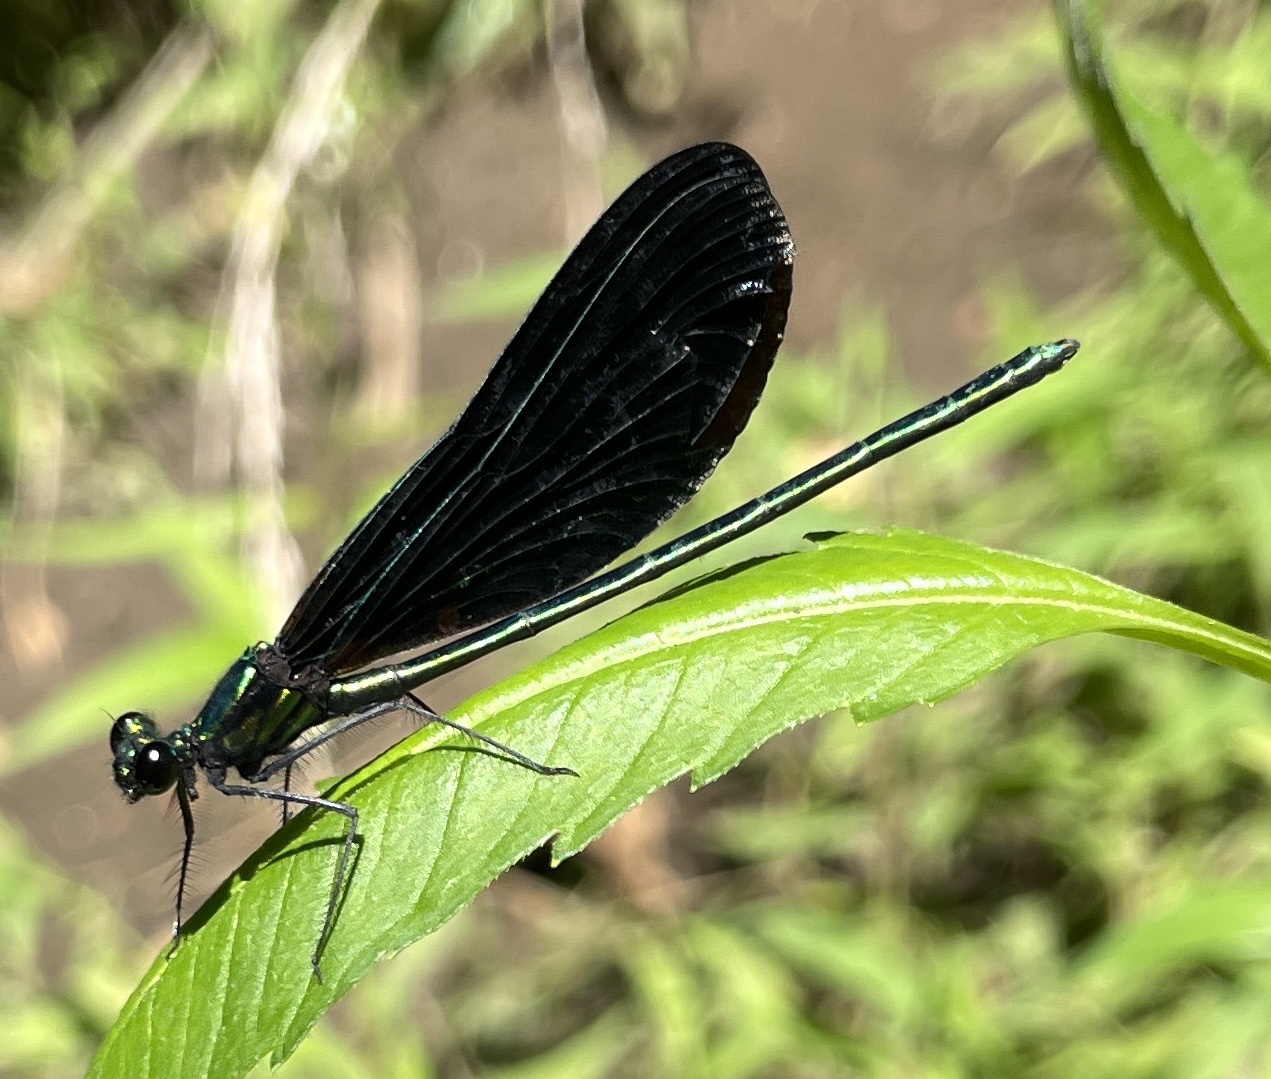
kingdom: Animalia
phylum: Arthropoda
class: Insecta
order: Odonata
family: Calopterygidae
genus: Calopteryx
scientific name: Calopteryx maculata
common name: Ebony jewelwing
